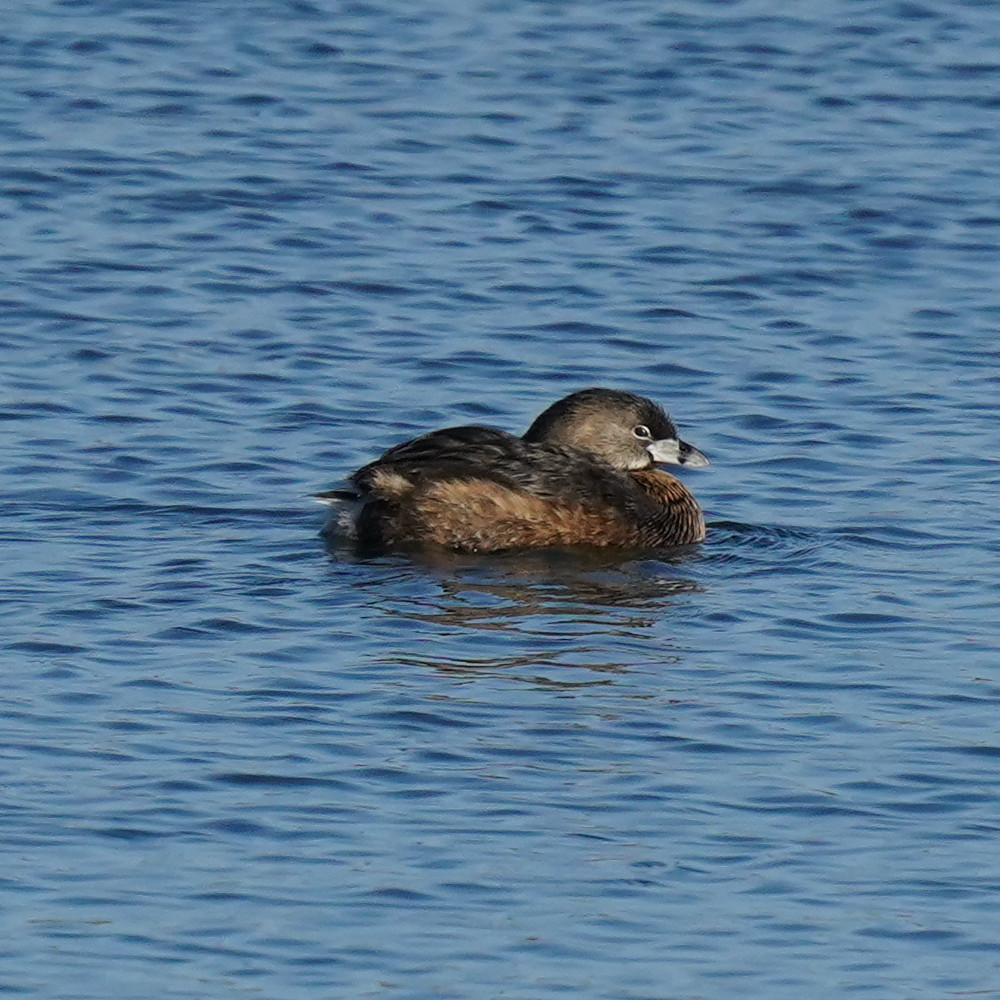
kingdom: Animalia
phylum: Chordata
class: Aves
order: Podicipediformes
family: Podicipedidae
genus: Podilymbus
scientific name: Podilymbus podiceps
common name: Pied-billed grebe
